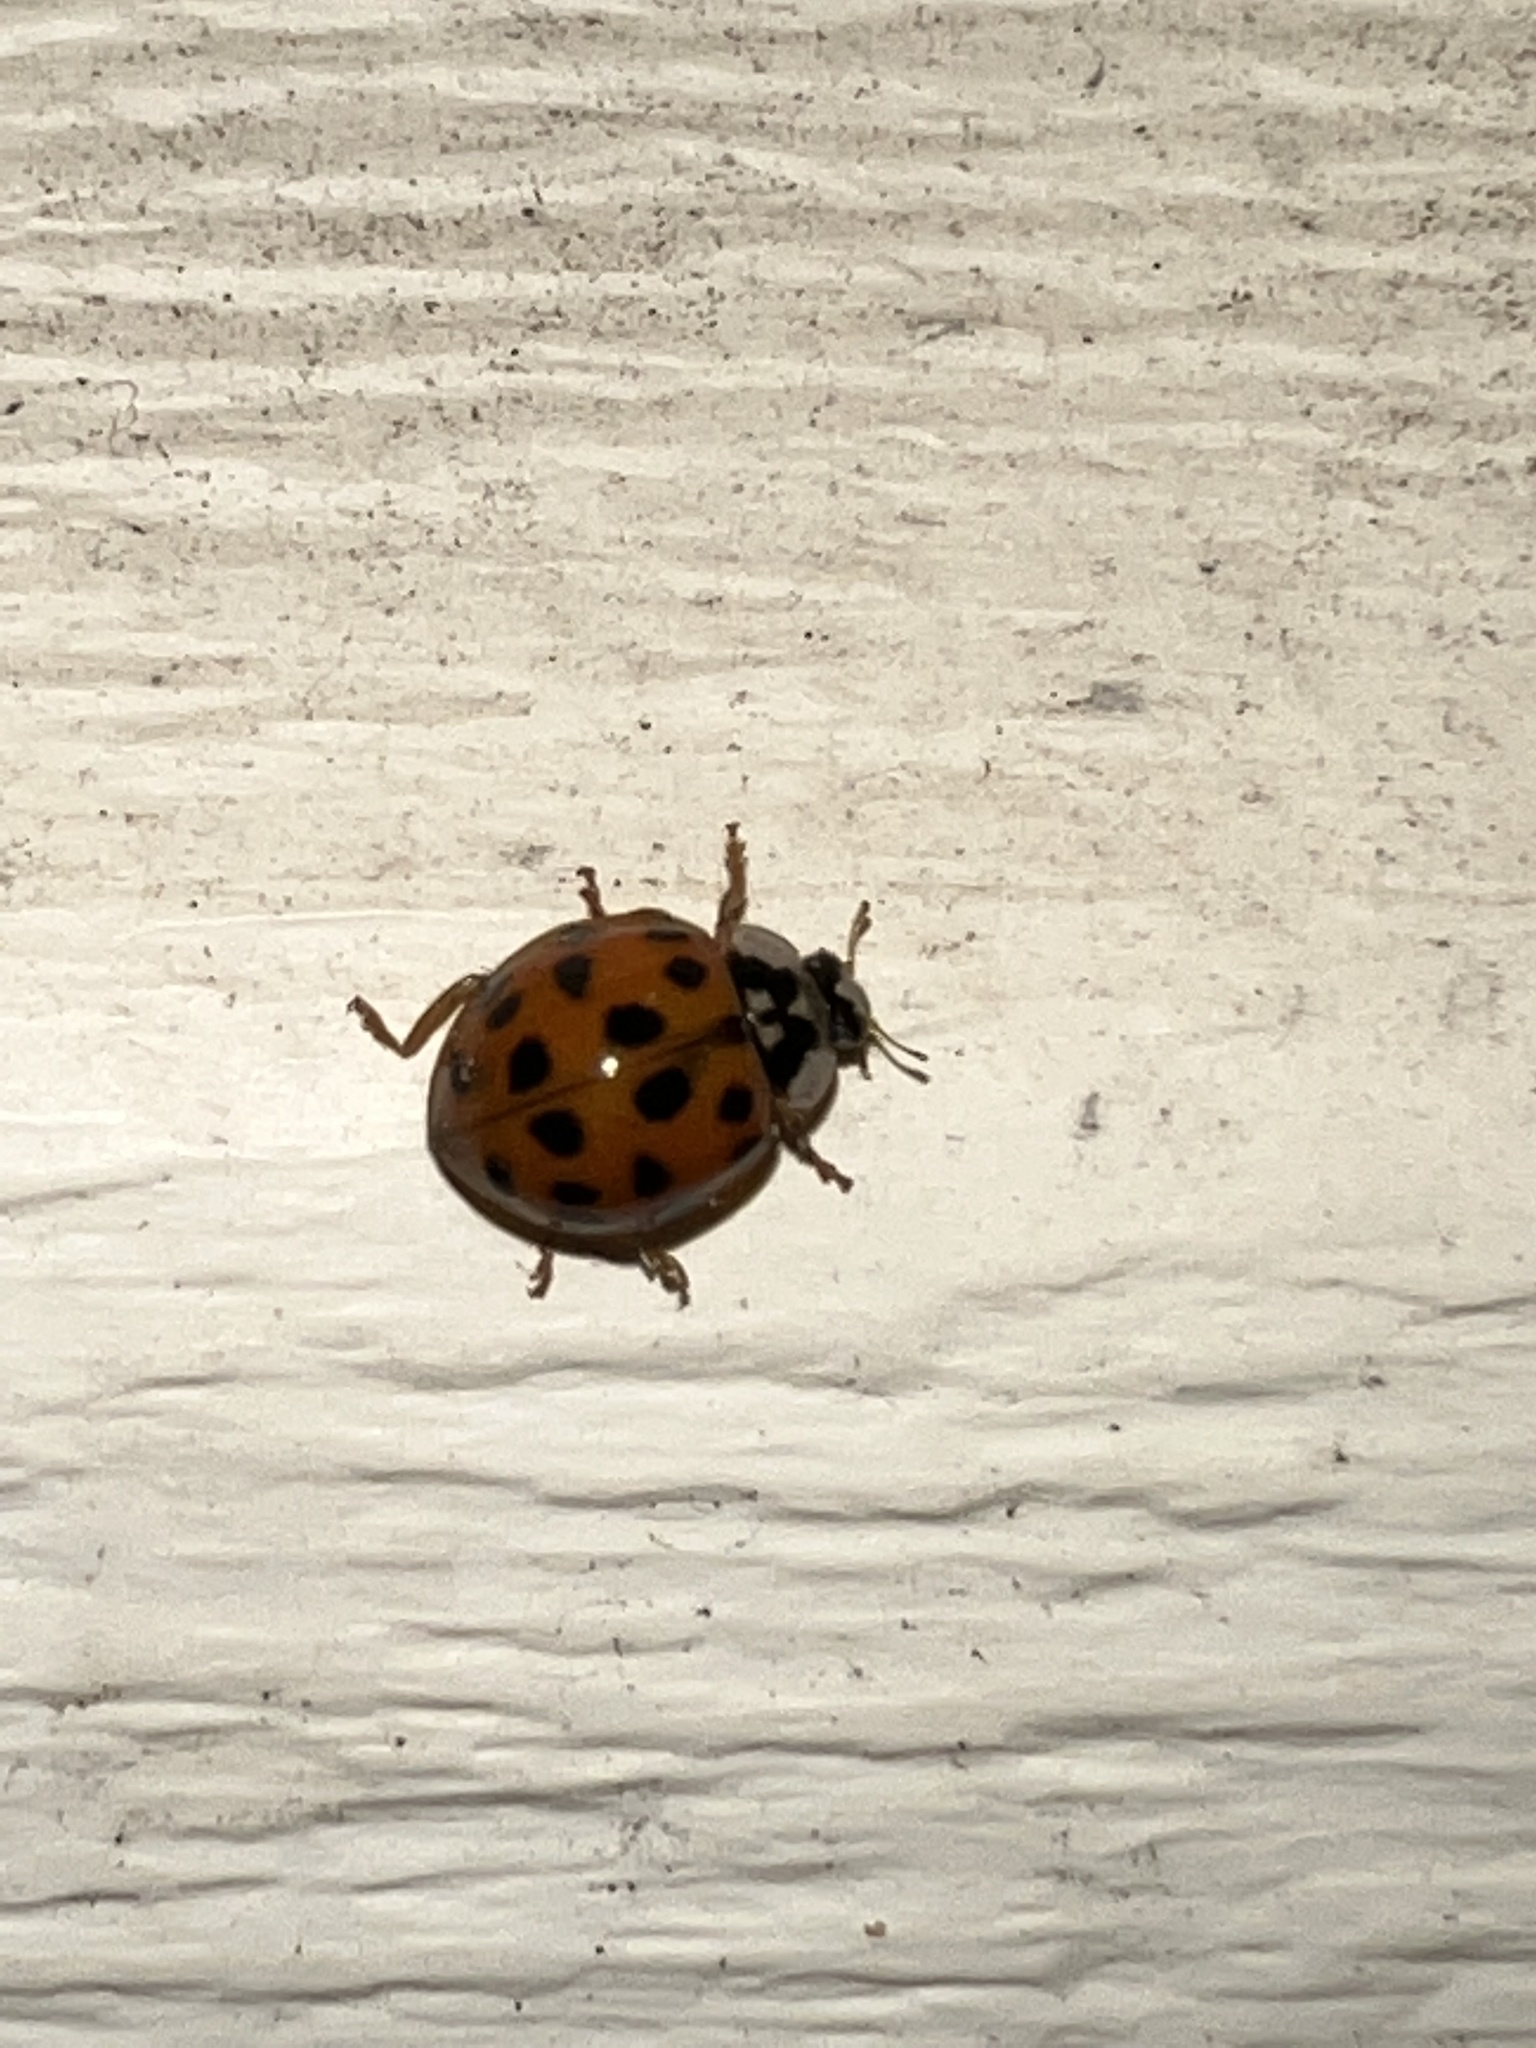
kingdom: Animalia
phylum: Arthropoda
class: Insecta
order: Coleoptera
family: Coccinellidae
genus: Harmonia
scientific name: Harmonia axyridis
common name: Harlequin ladybird
